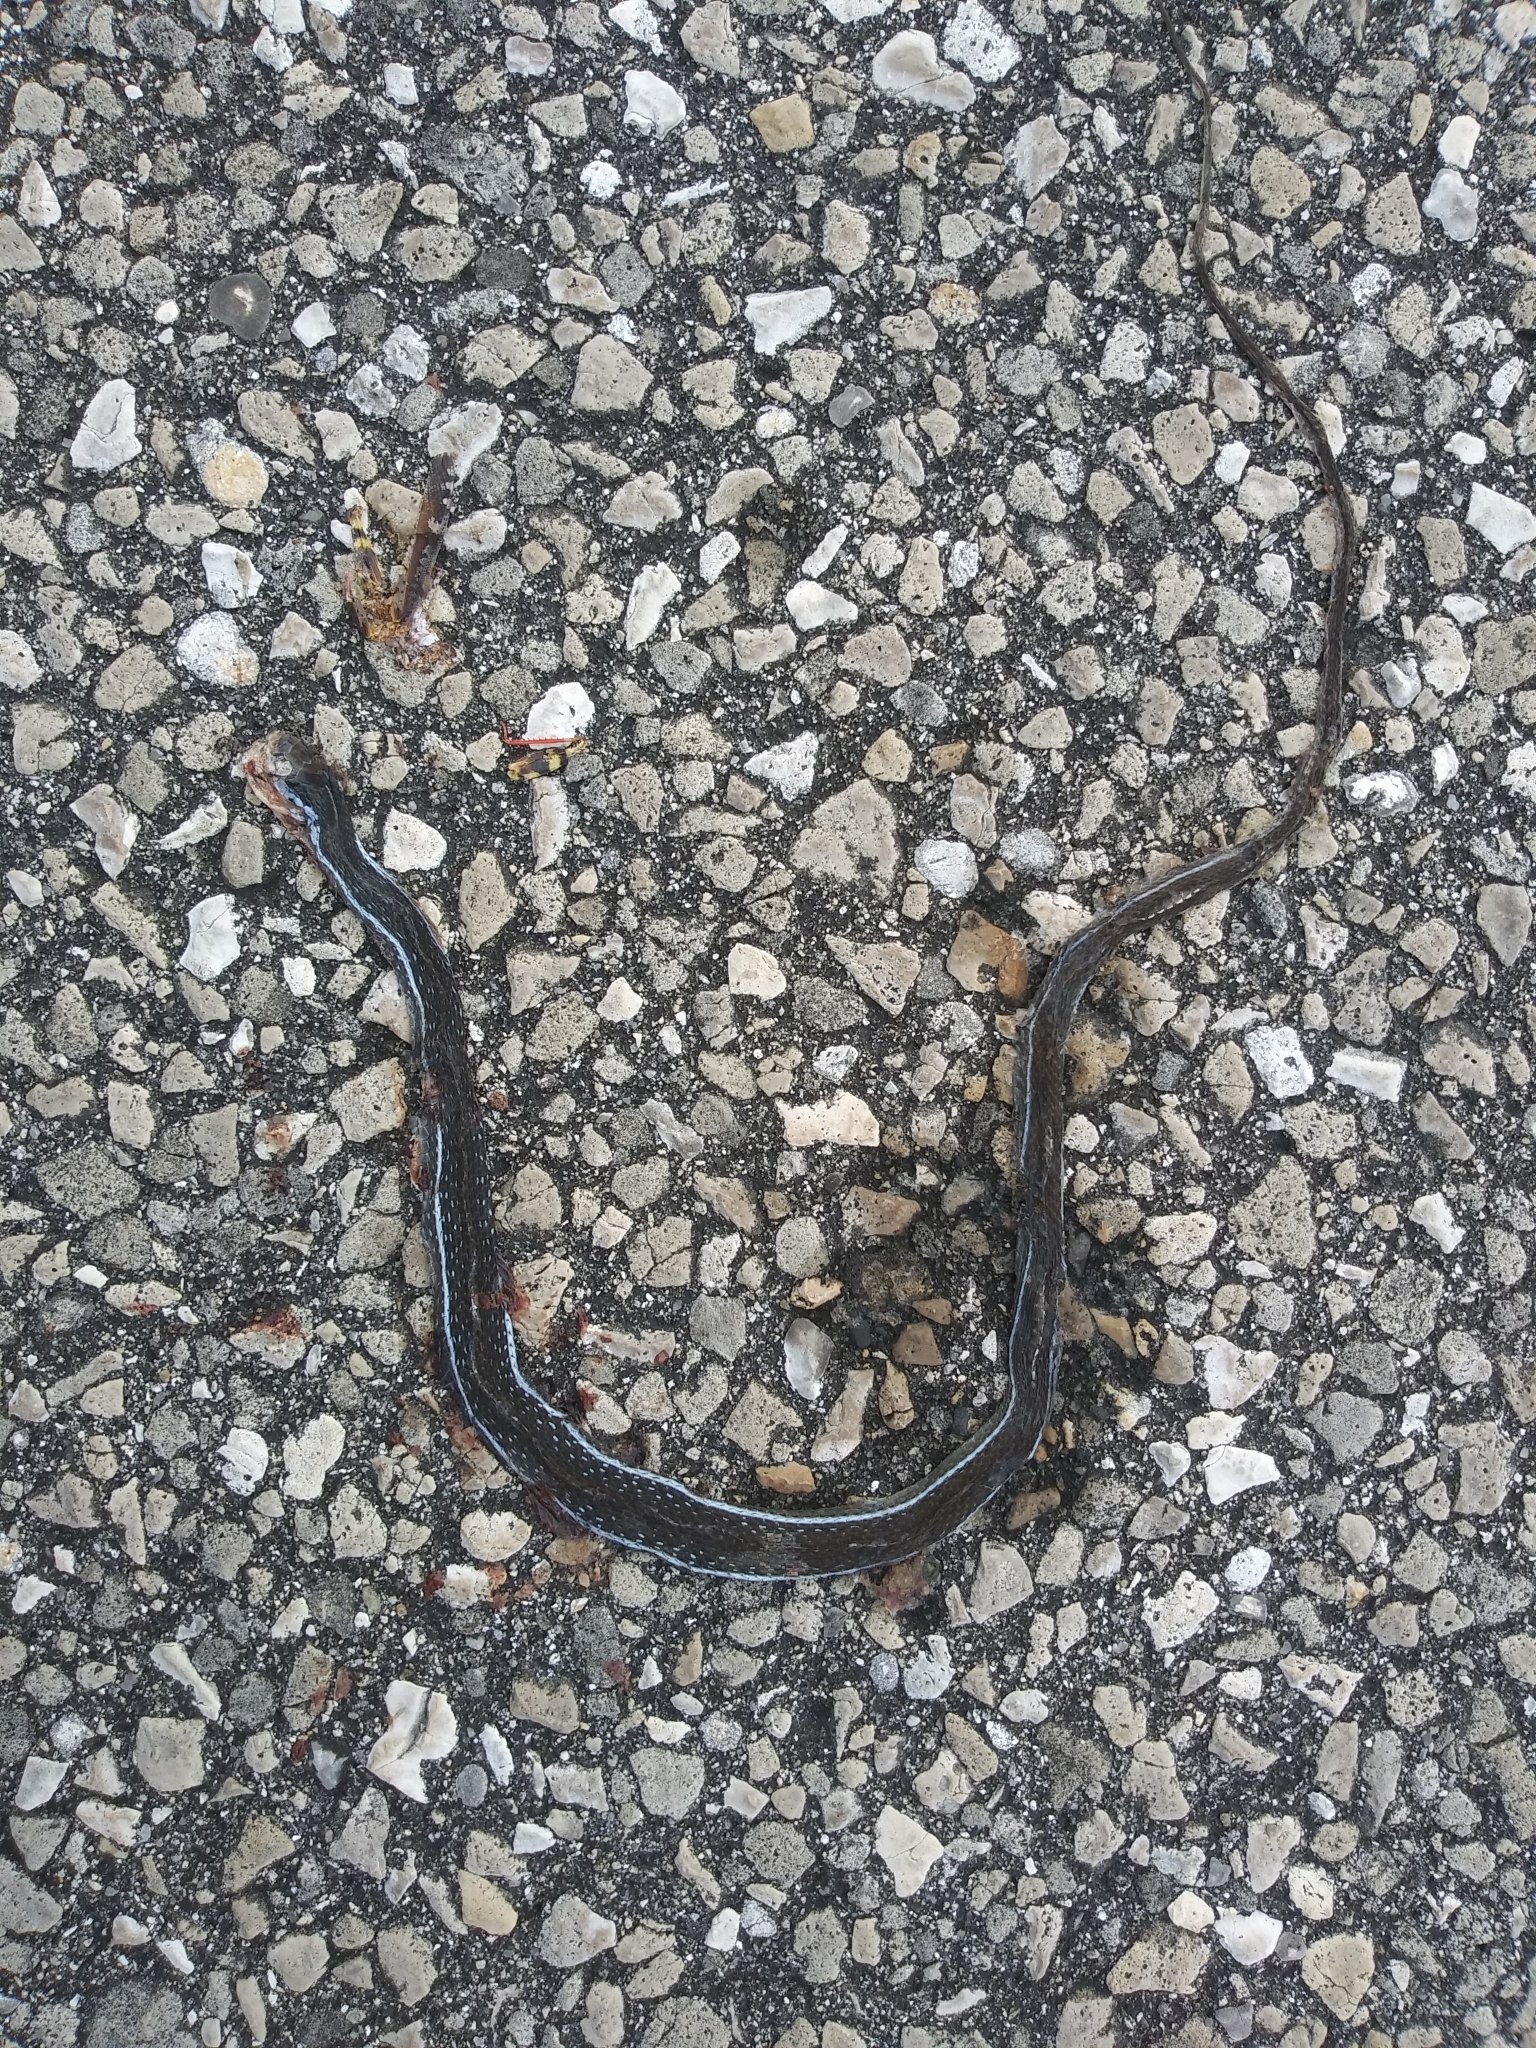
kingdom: Animalia
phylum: Chordata
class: Squamata
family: Colubridae
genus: Thamnophis
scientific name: Thamnophis saurita
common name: Eastern ribbonsnake
